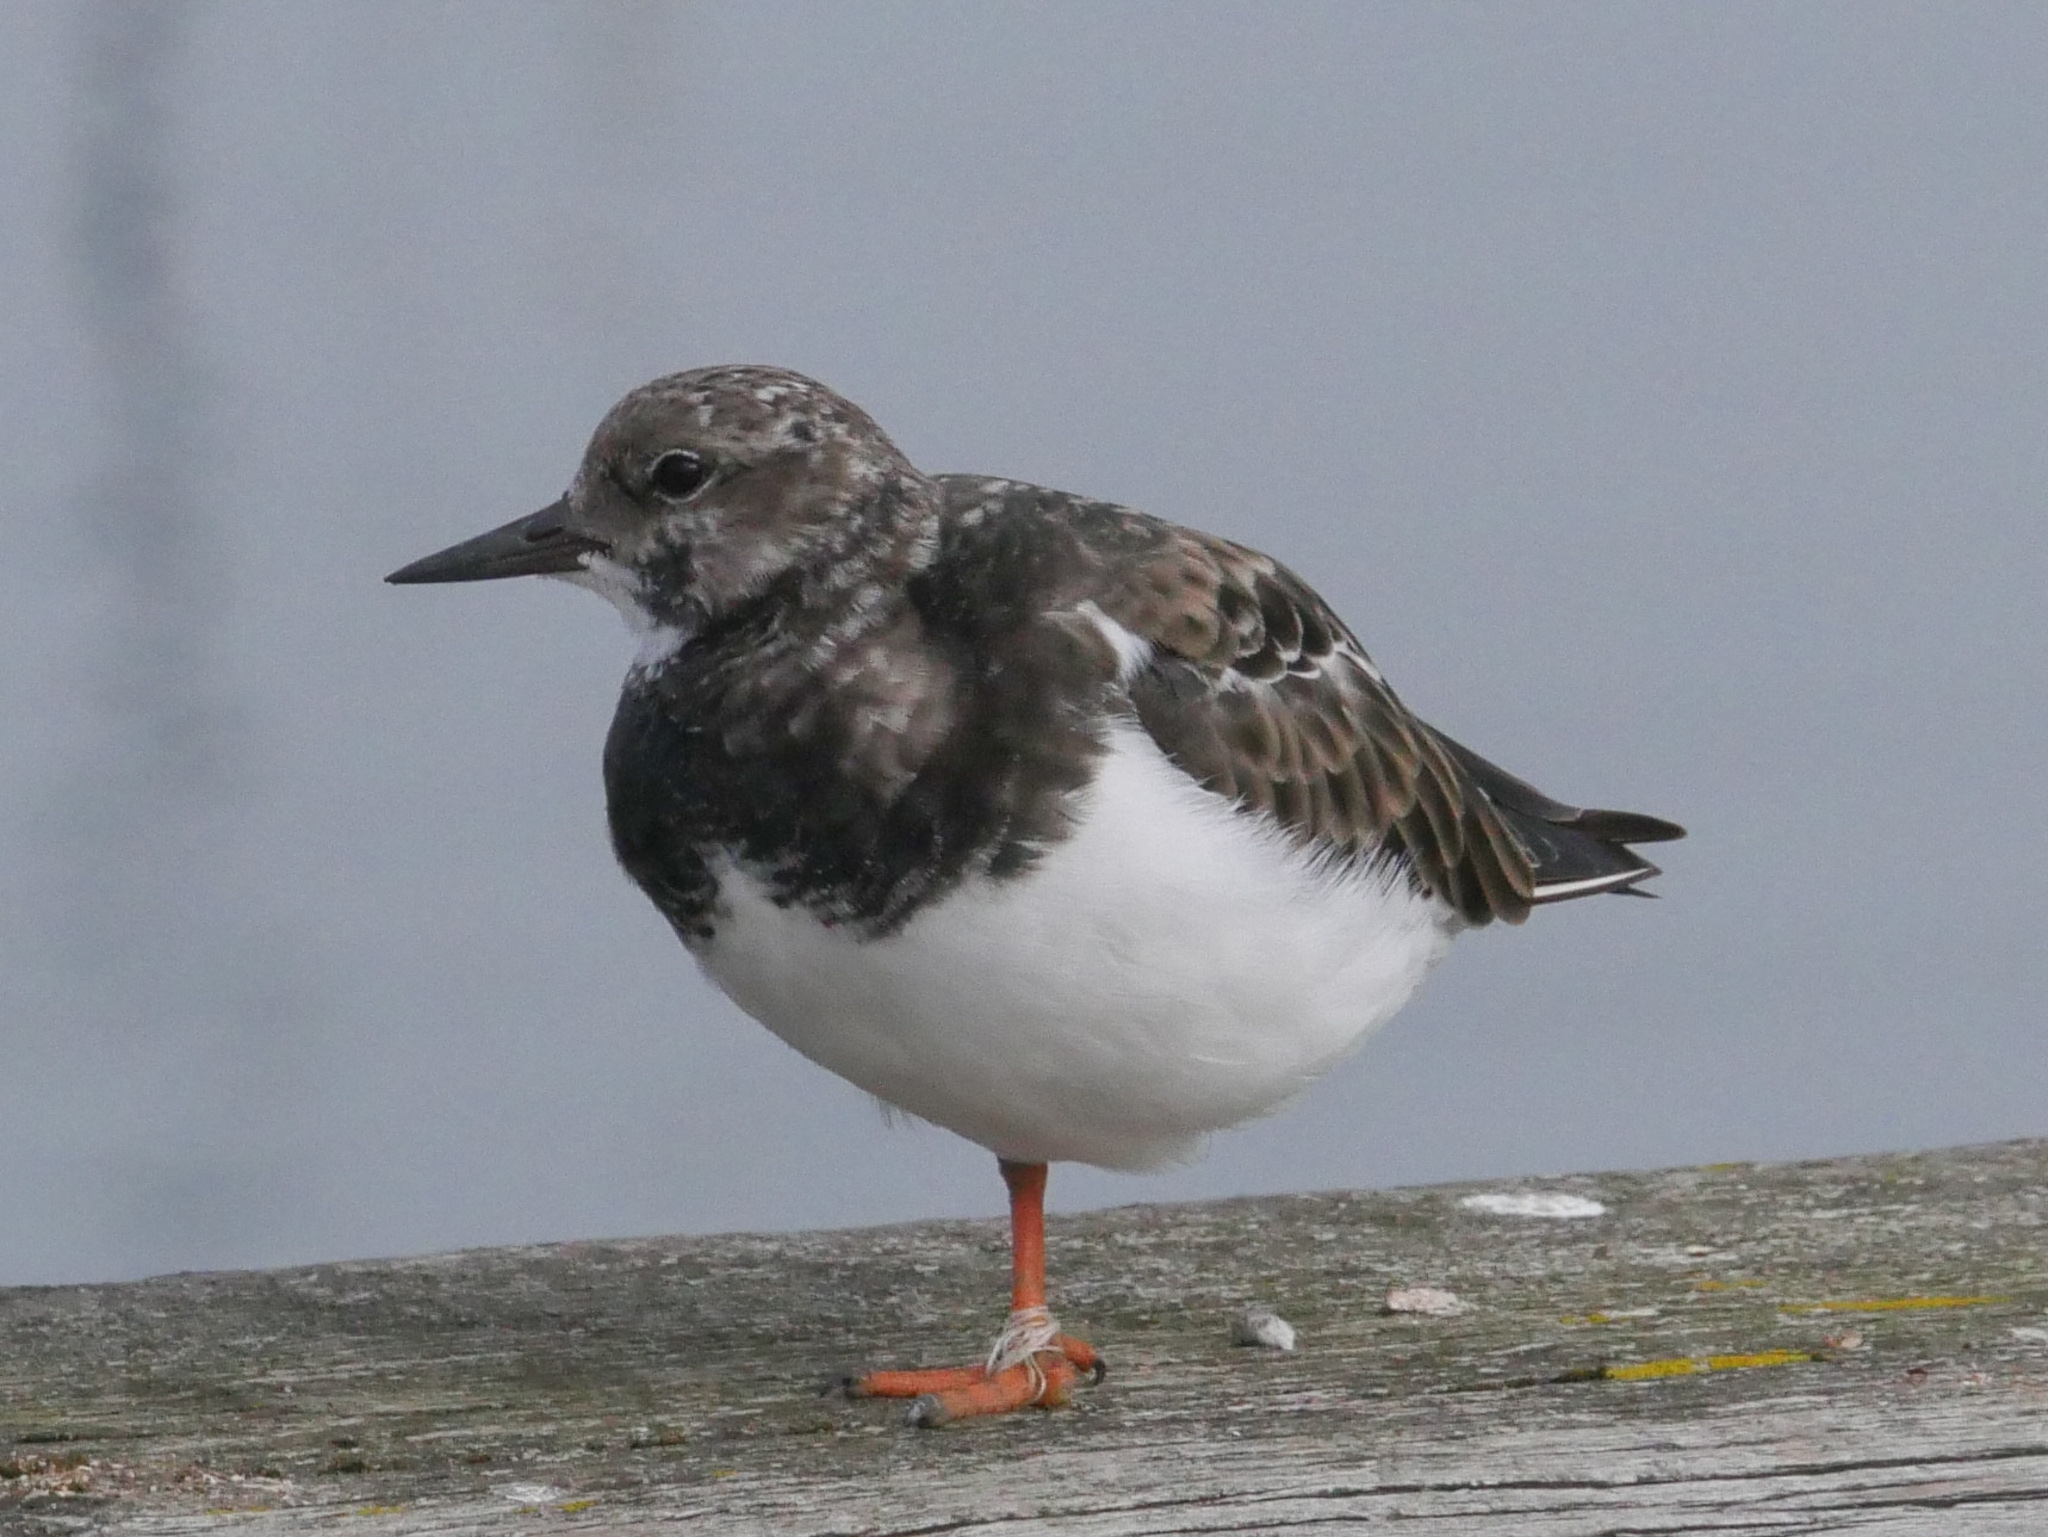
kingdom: Animalia
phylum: Chordata
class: Aves
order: Charadriiformes
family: Scolopacidae
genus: Arenaria
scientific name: Arenaria interpres
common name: Ruddy turnstone
